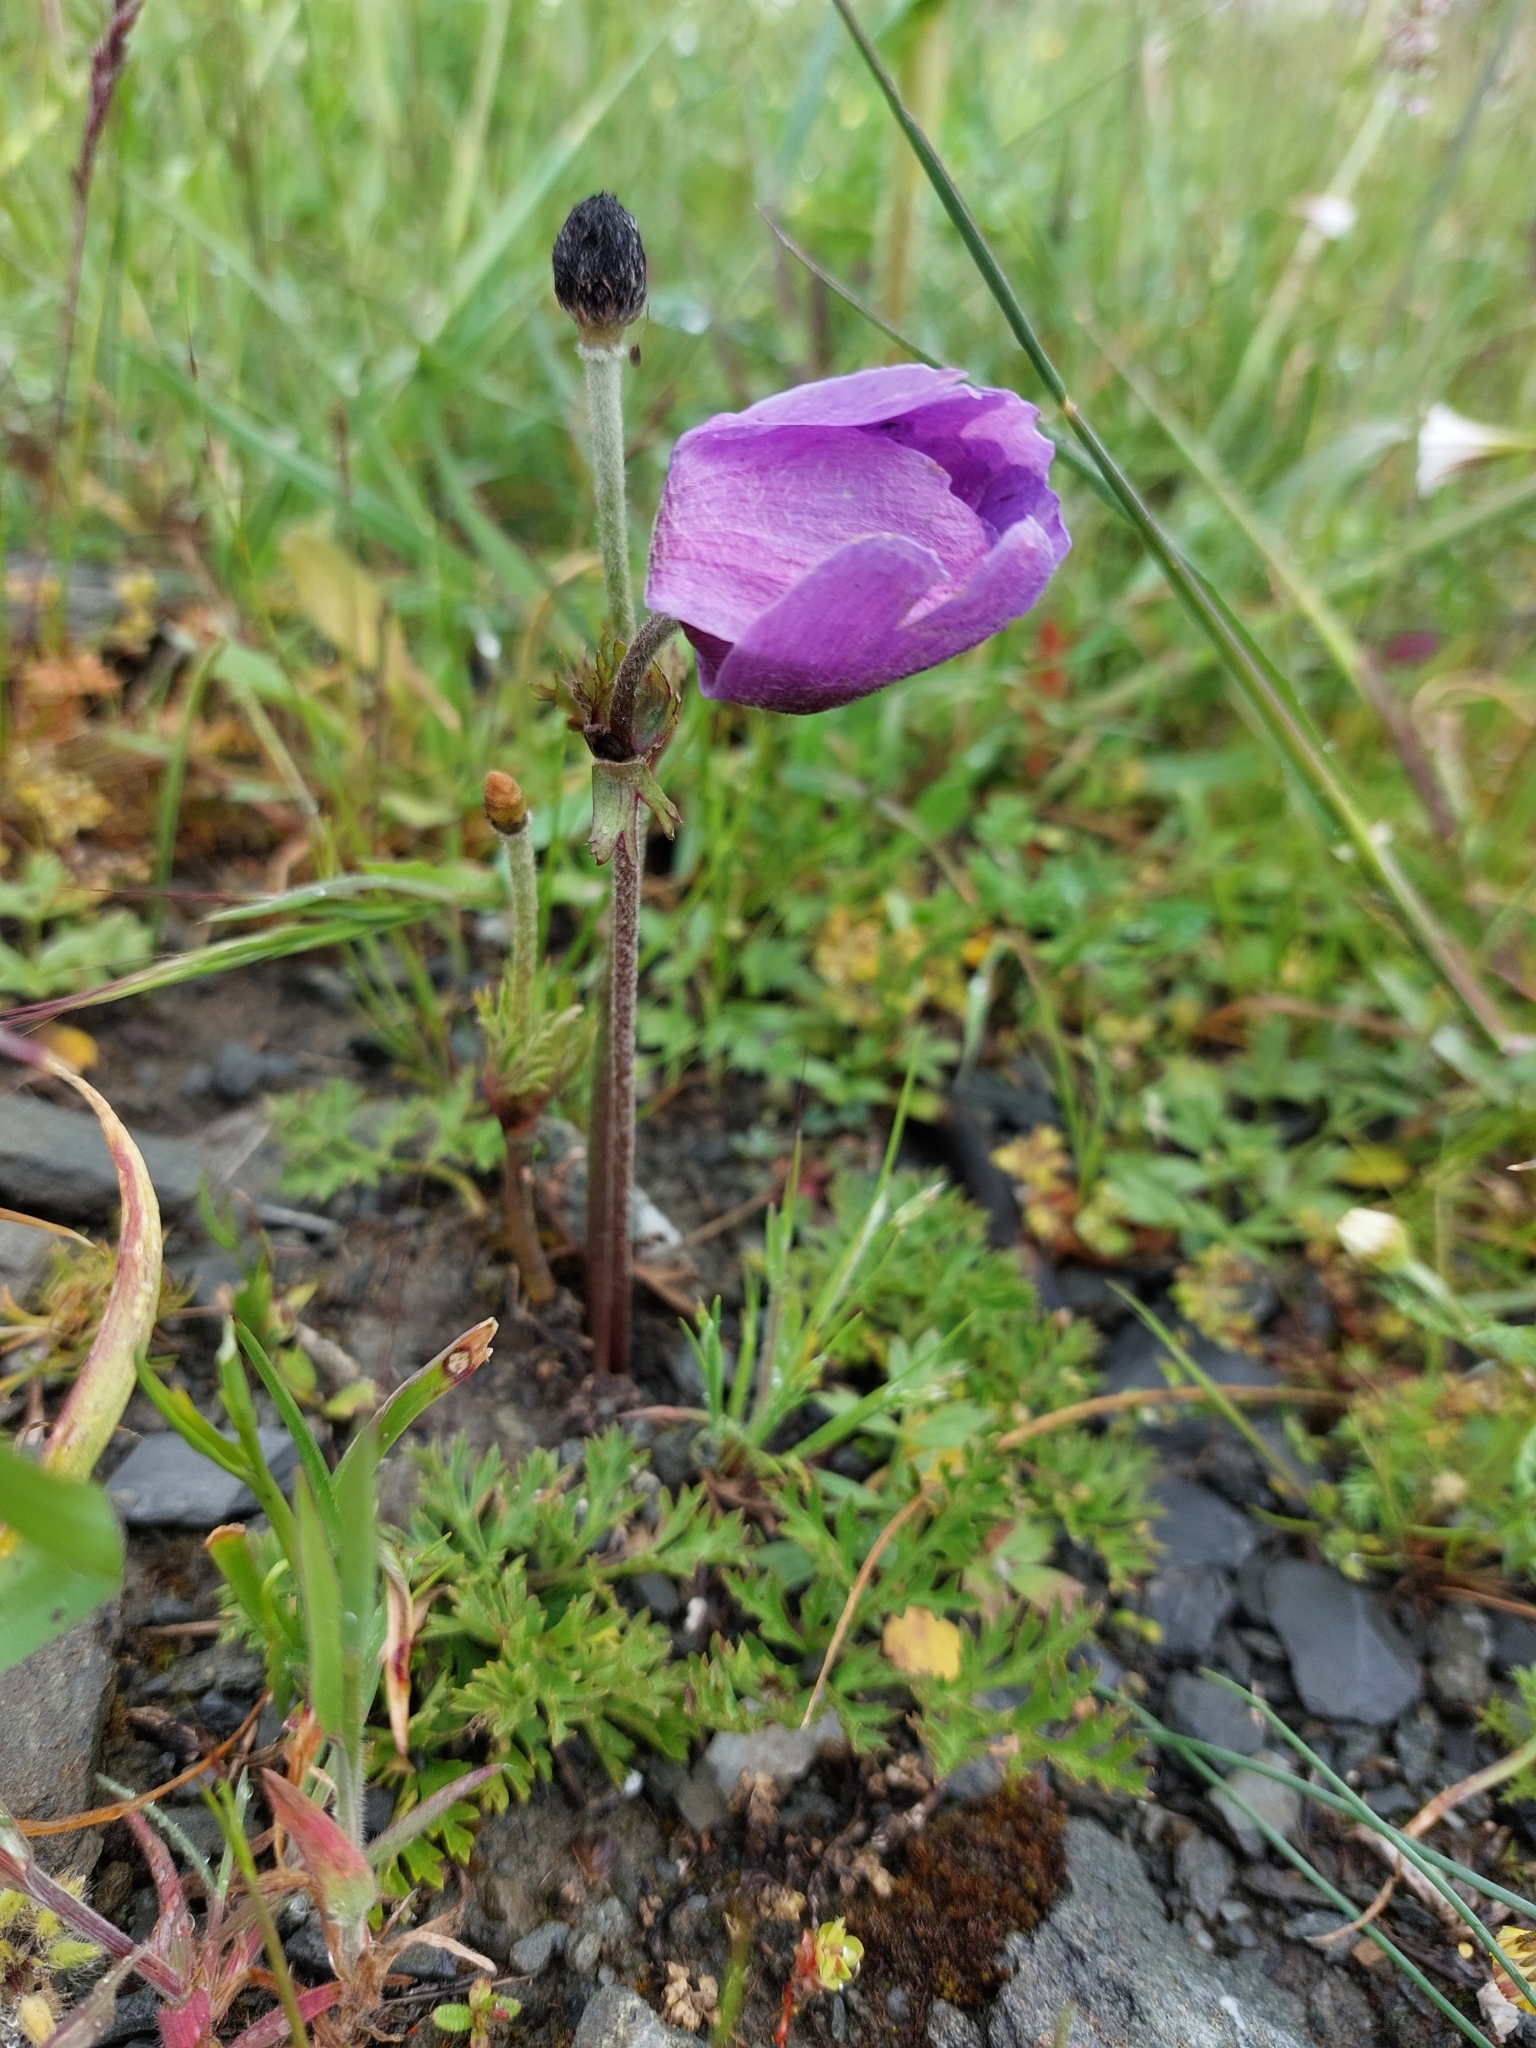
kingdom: Plantae
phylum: Tracheophyta
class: Magnoliopsida
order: Ranunculales
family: Ranunculaceae
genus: Anemone
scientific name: Anemone coronaria
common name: Poppy anemone
